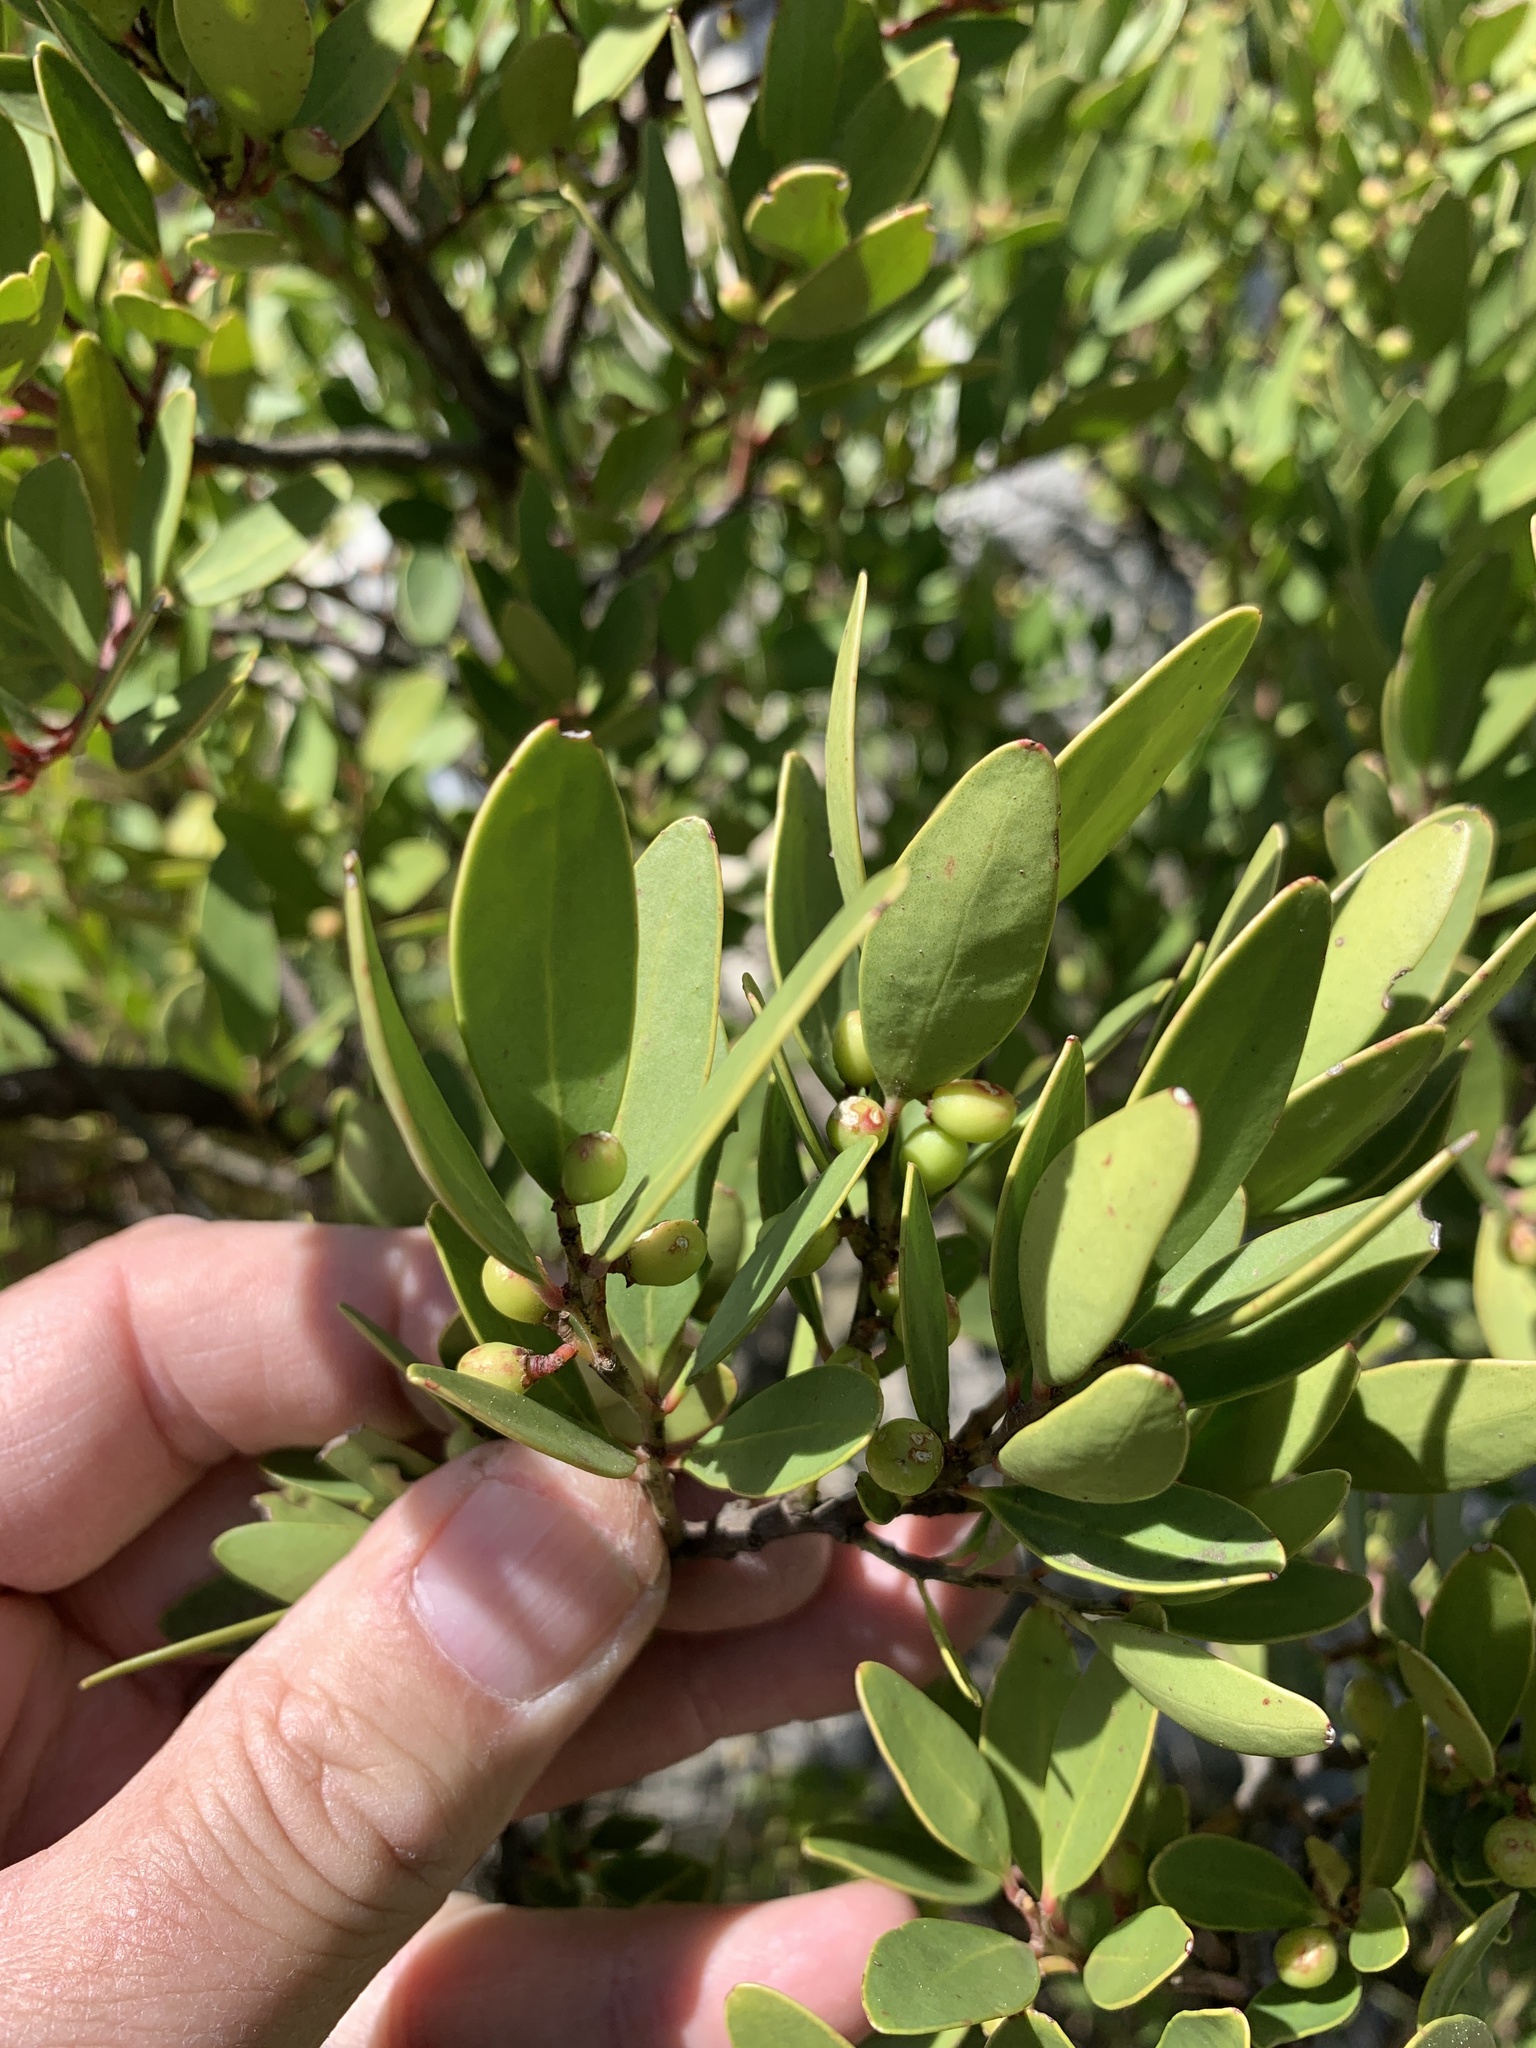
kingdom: Plantae
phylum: Tracheophyta
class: Magnoliopsida
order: Celastrales
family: Celastraceae
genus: Gymnosporia
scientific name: Gymnosporia laurina
